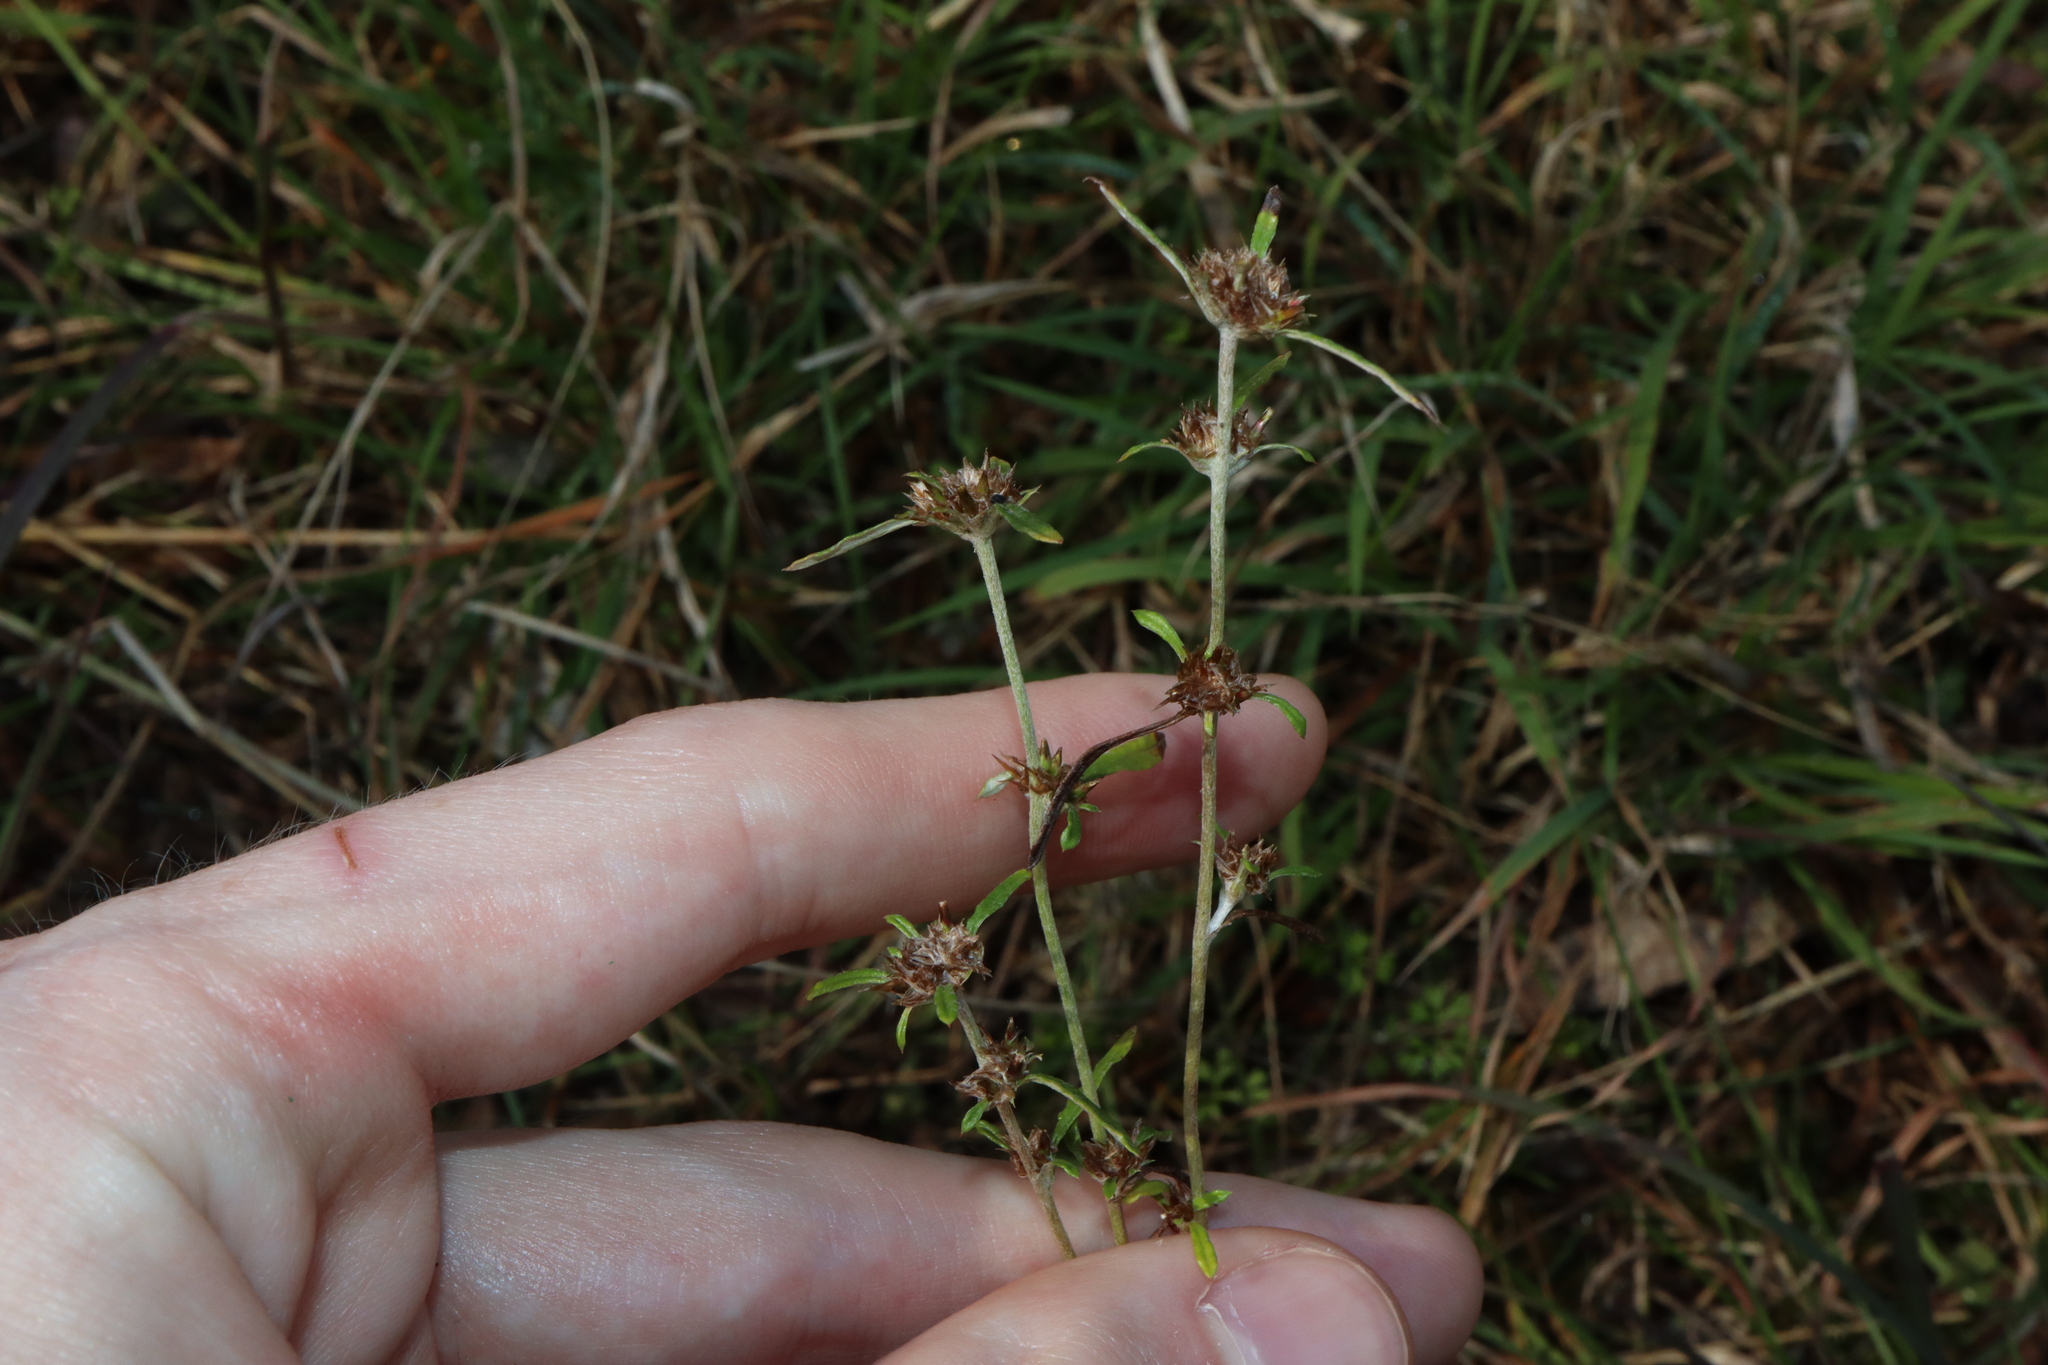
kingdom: Plantae
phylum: Tracheophyta
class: Magnoliopsida
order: Asterales
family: Asteraceae
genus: Euchiton
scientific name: Euchiton sphaericus
